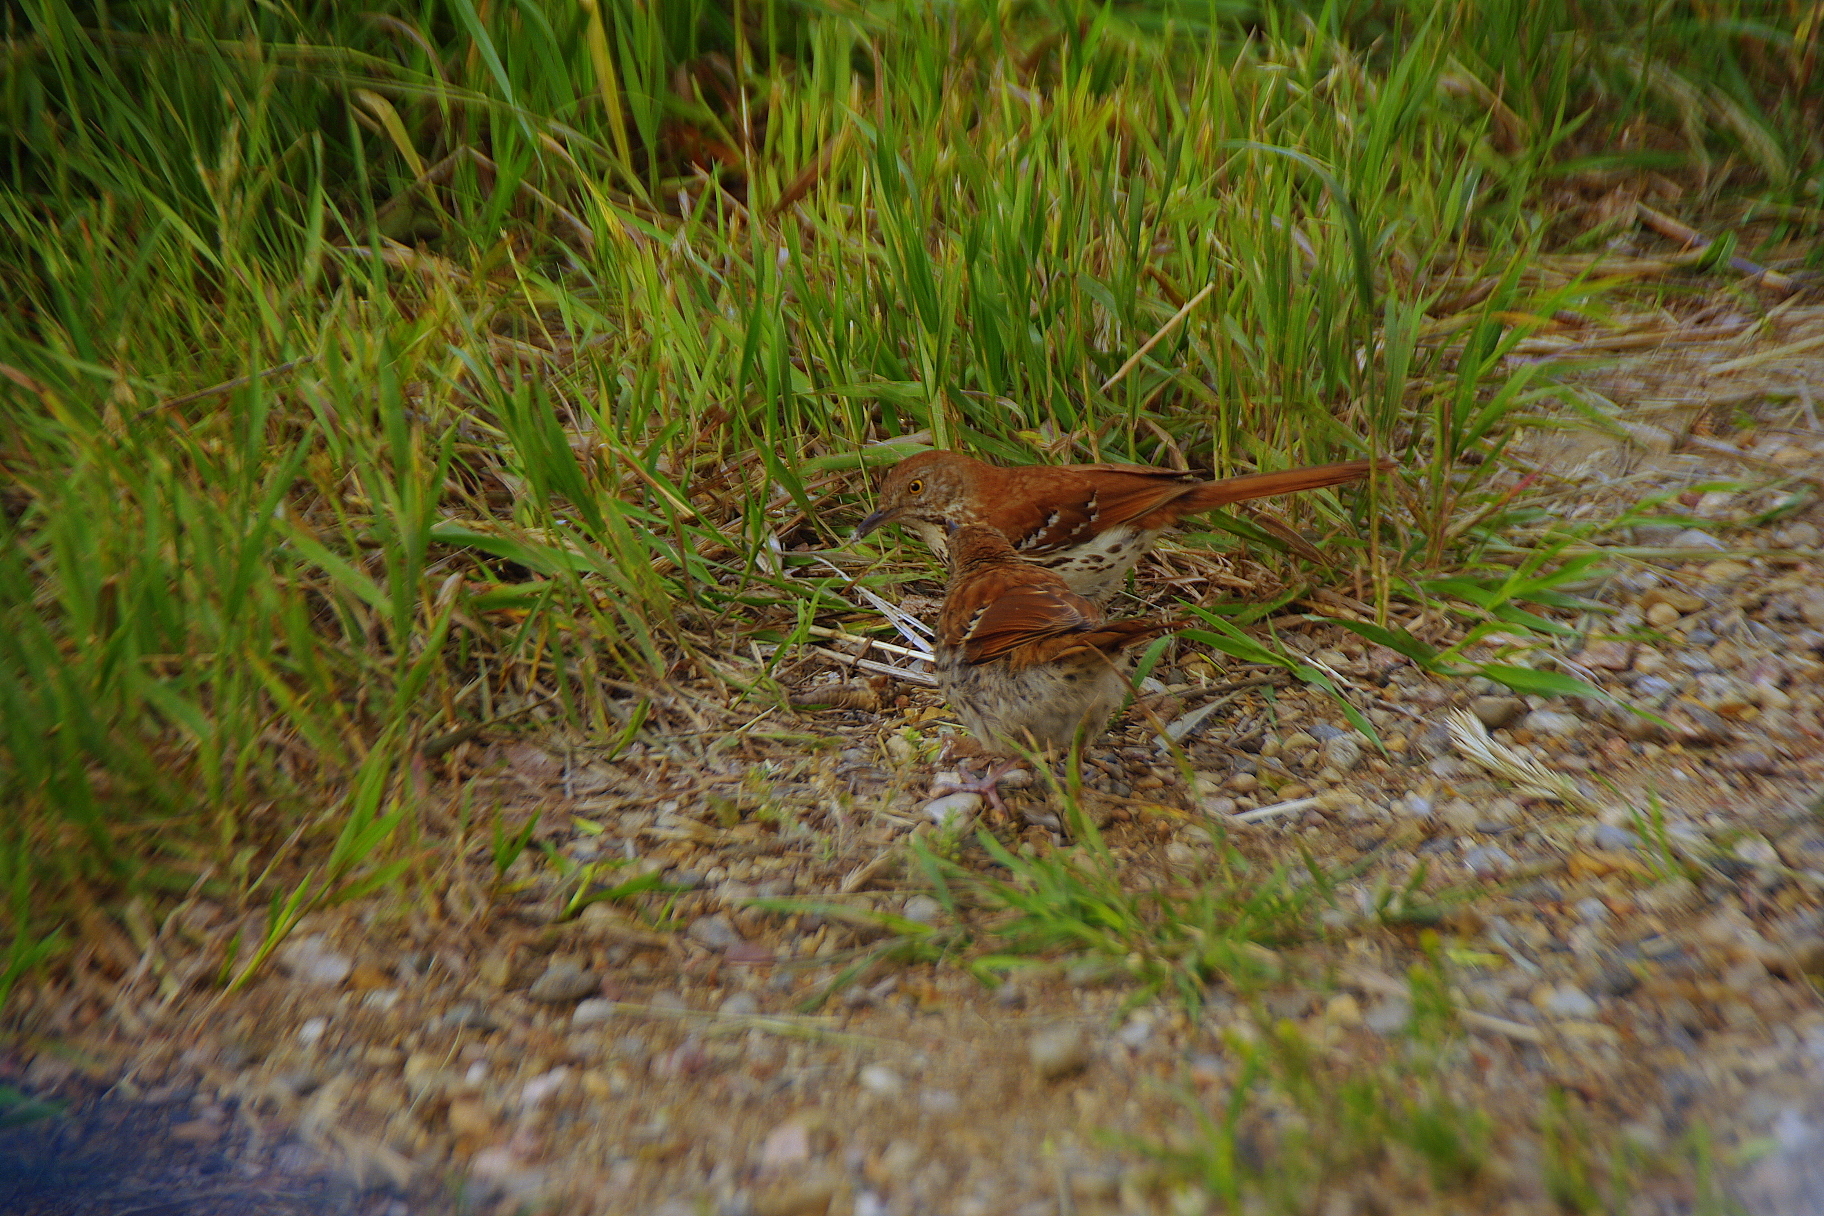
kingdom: Animalia
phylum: Chordata
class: Aves
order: Passeriformes
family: Mimidae
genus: Toxostoma
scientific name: Toxostoma rufum
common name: Brown thrasher
